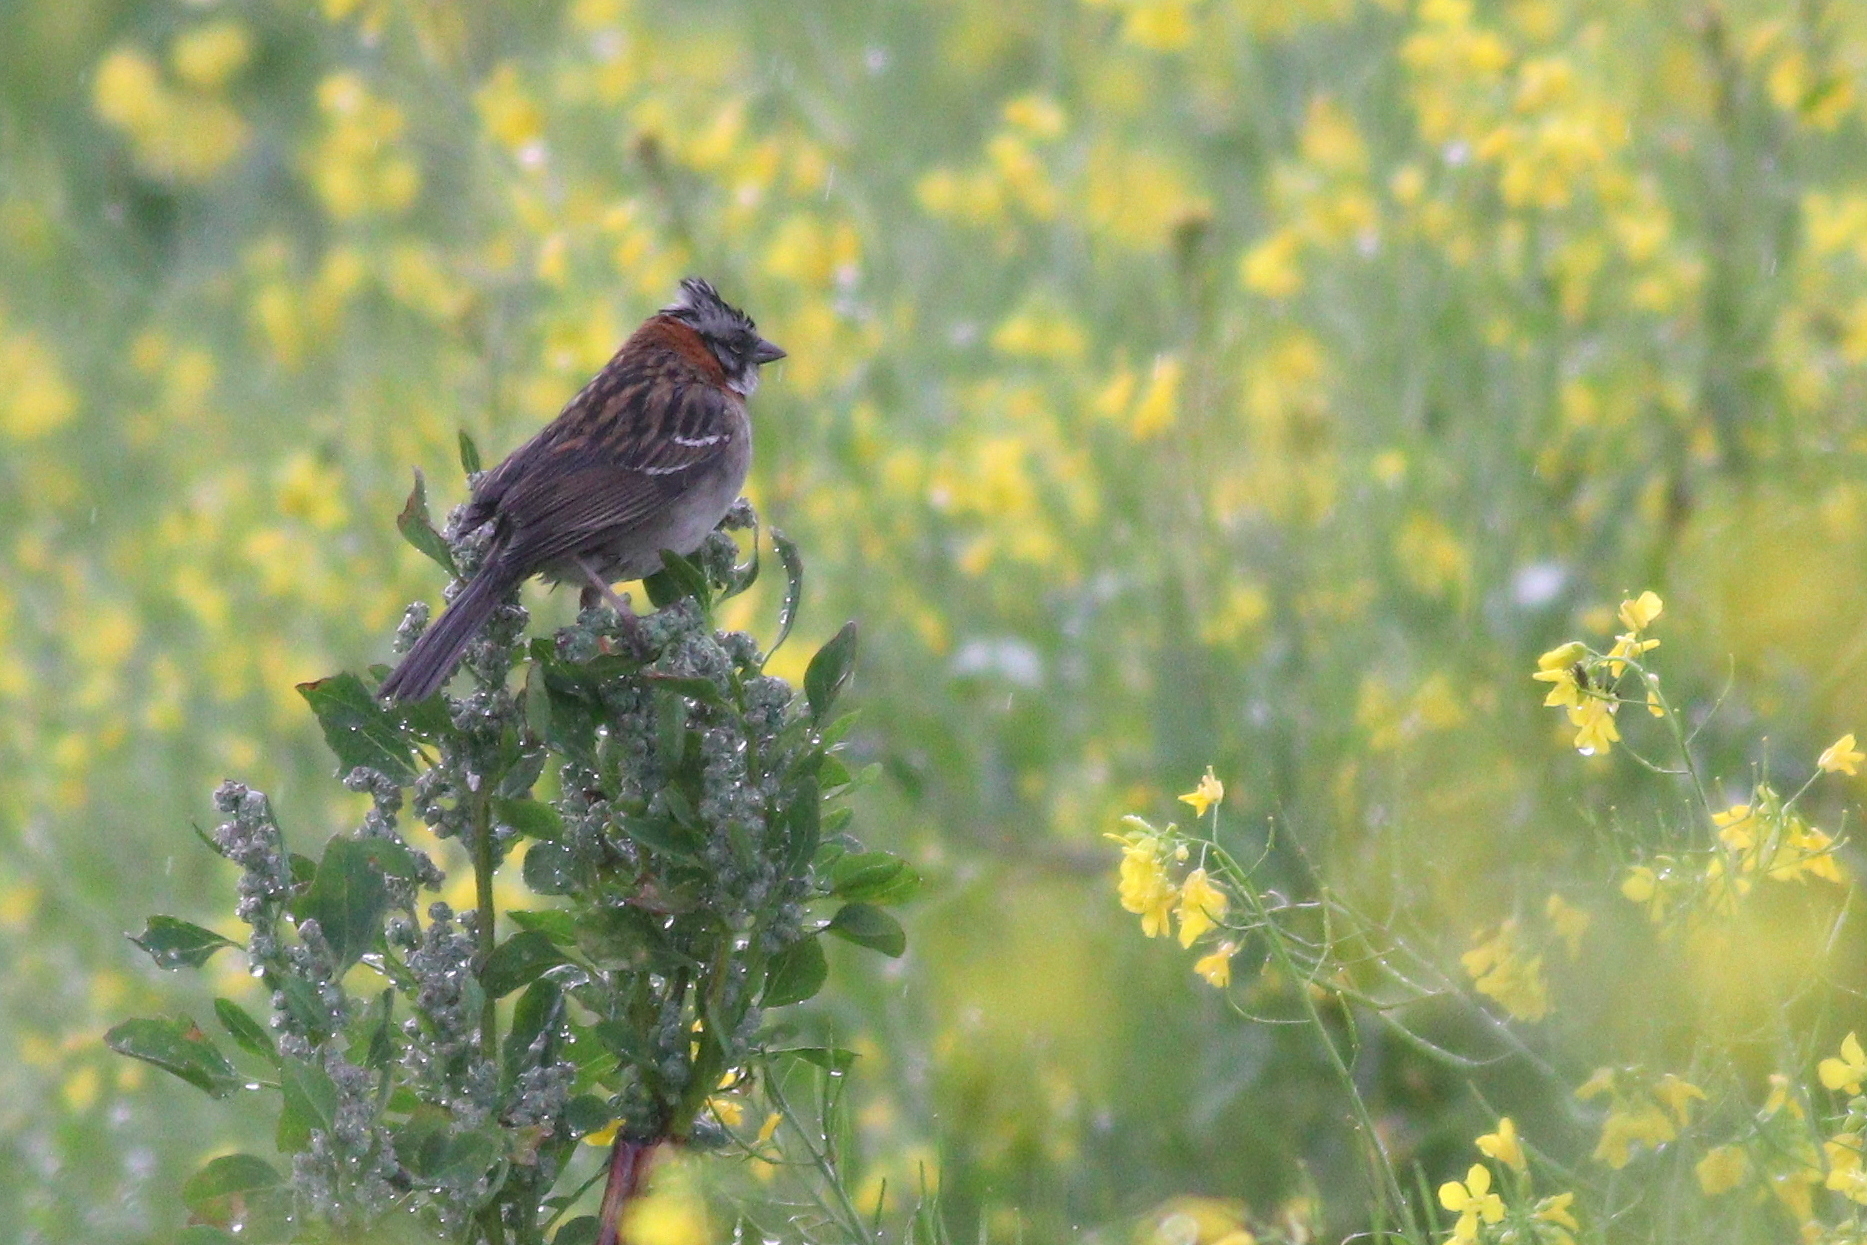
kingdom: Animalia
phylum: Chordata
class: Aves
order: Passeriformes
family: Passerellidae
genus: Zonotrichia
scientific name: Zonotrichia capensis
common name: Rufous-collared sparrow
